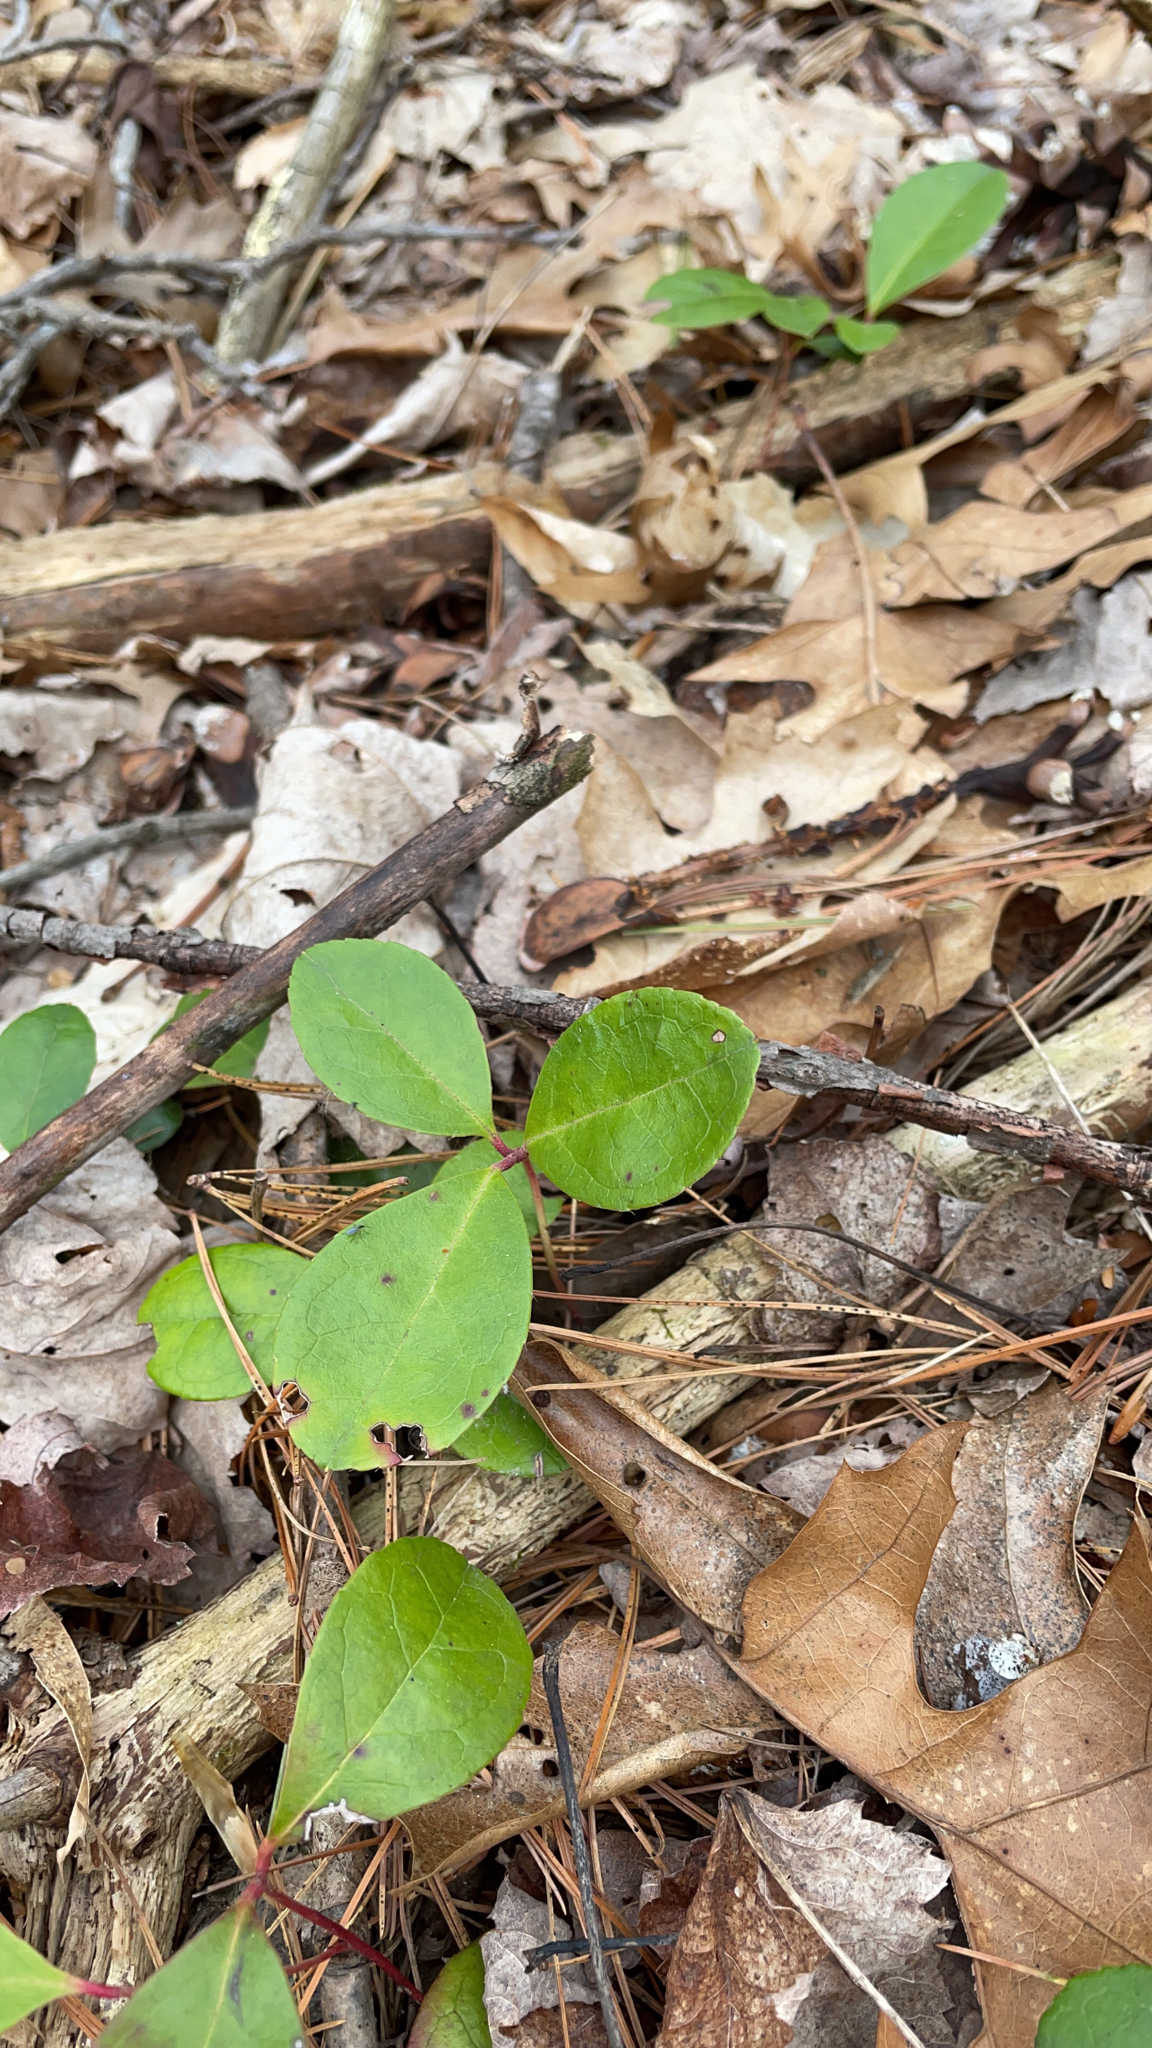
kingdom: Plantae
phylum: Tracheophyta
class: Magnoliopsida
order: Ericales
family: Ericaceae
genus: Gaultheria
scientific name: Gaultheria procumbens
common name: Checkerberry
